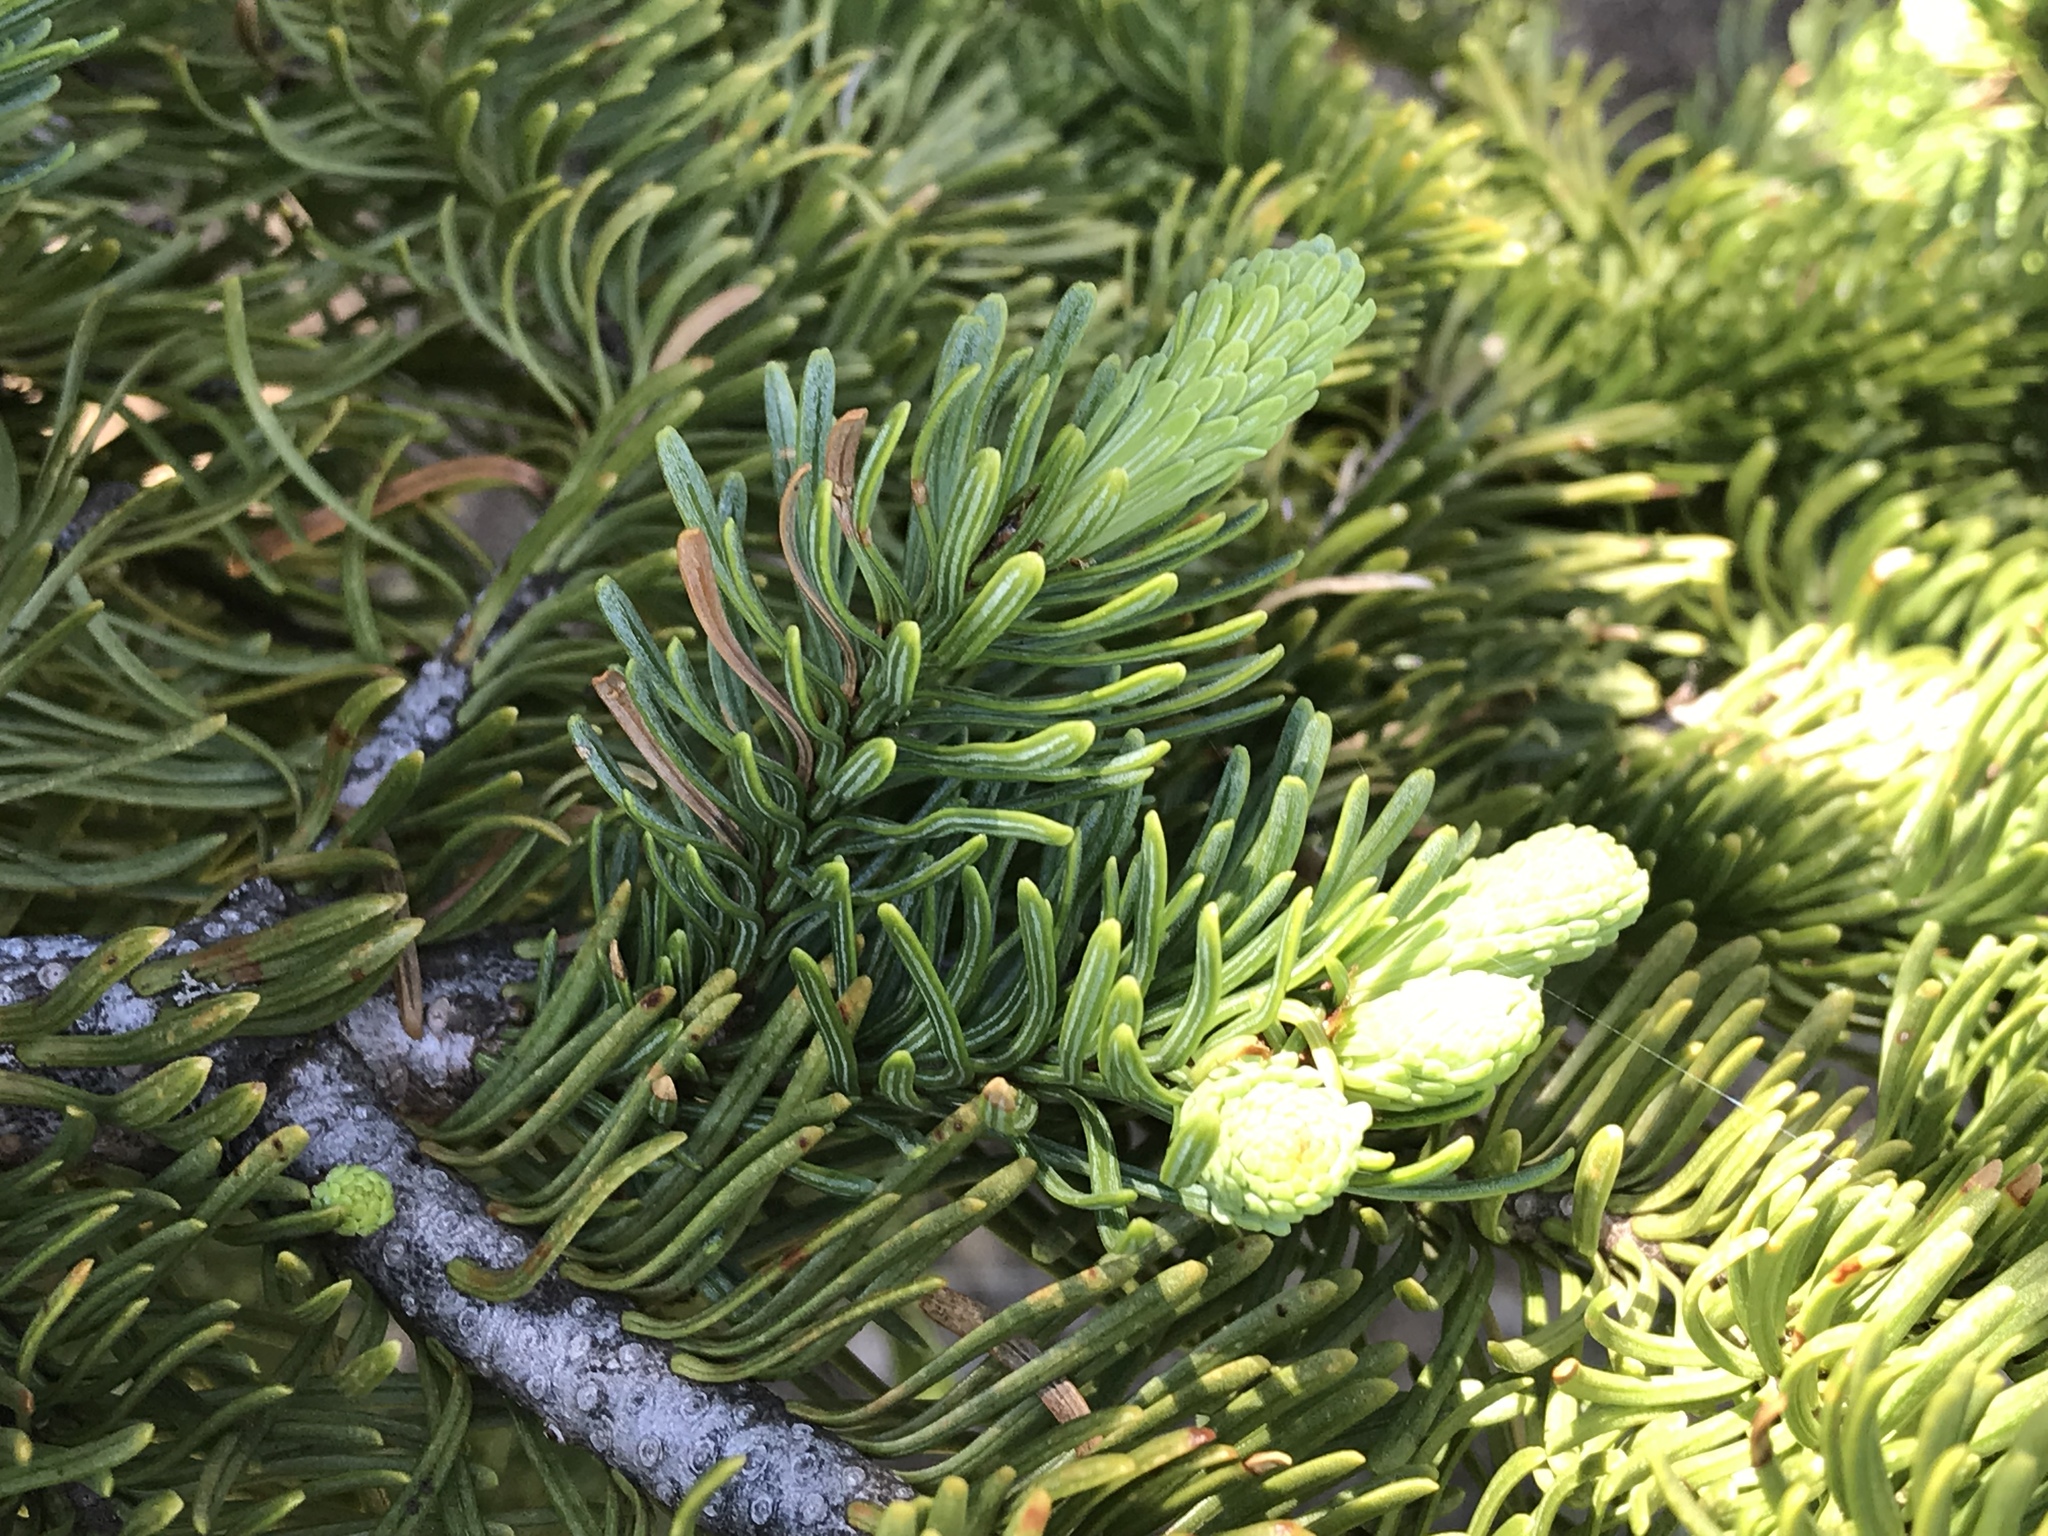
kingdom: Plantae
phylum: Tracheophyta
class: Pinopsida
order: Pinales
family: Pinaceae
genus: Abies
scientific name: Abies procera
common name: Noble fir
